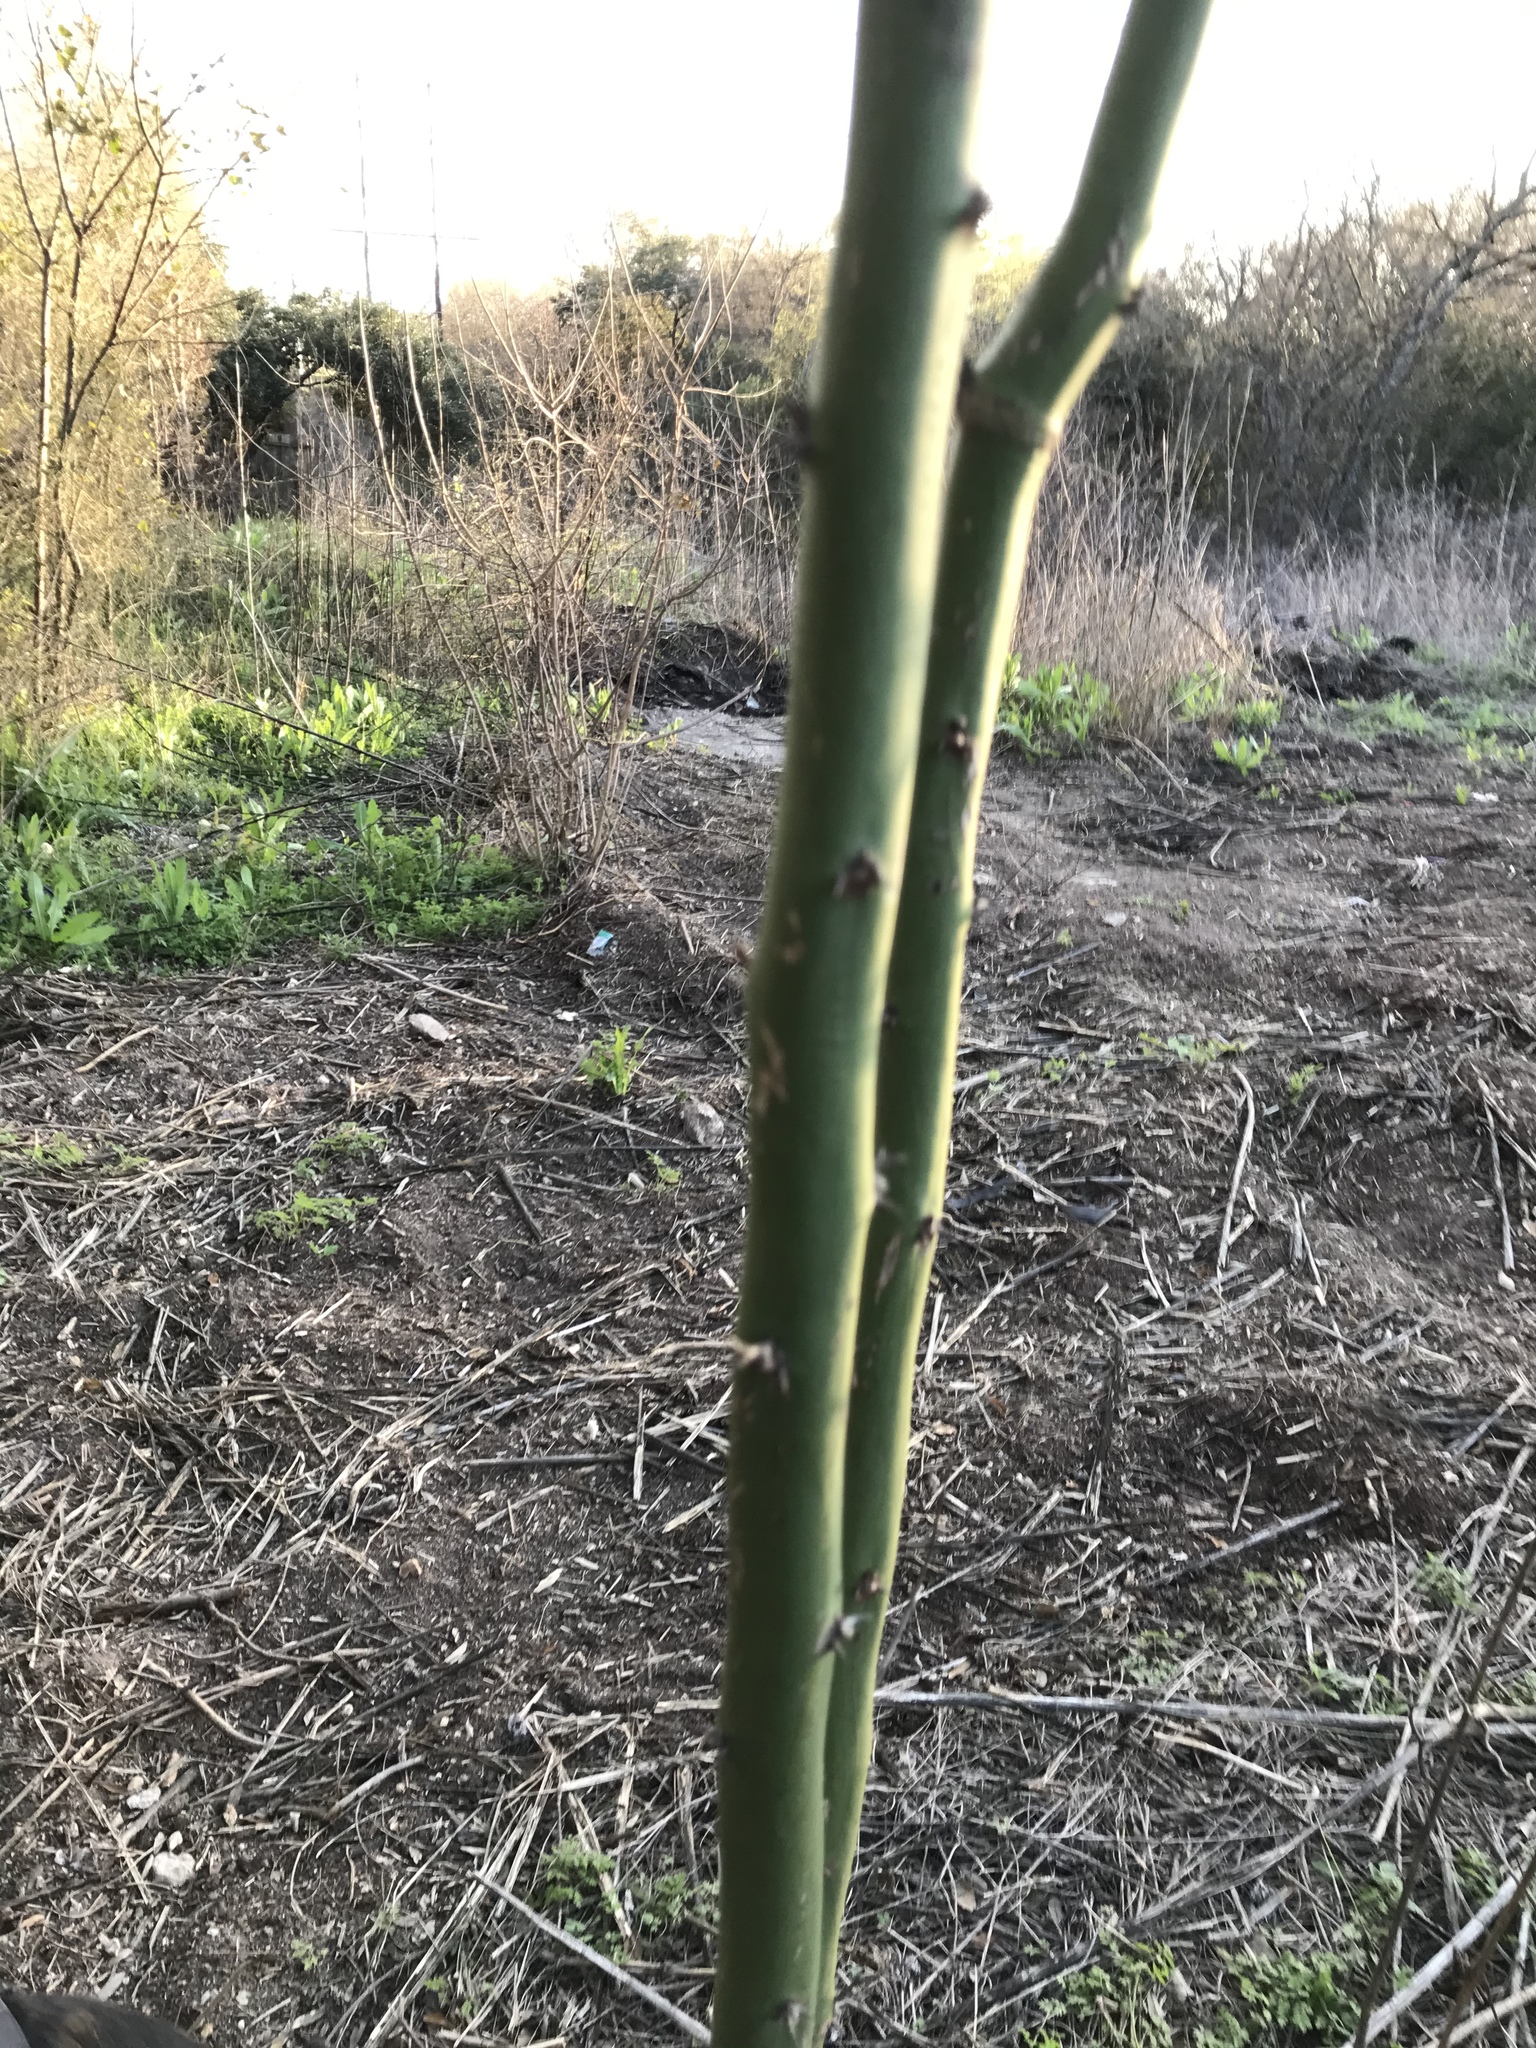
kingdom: Plantae
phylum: Tracheophyta
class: Magnoliopsida
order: Fabales
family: Fabaceae
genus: Parkinsonia
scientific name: Parkinsonia aculeata
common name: Jerusalem thorn
